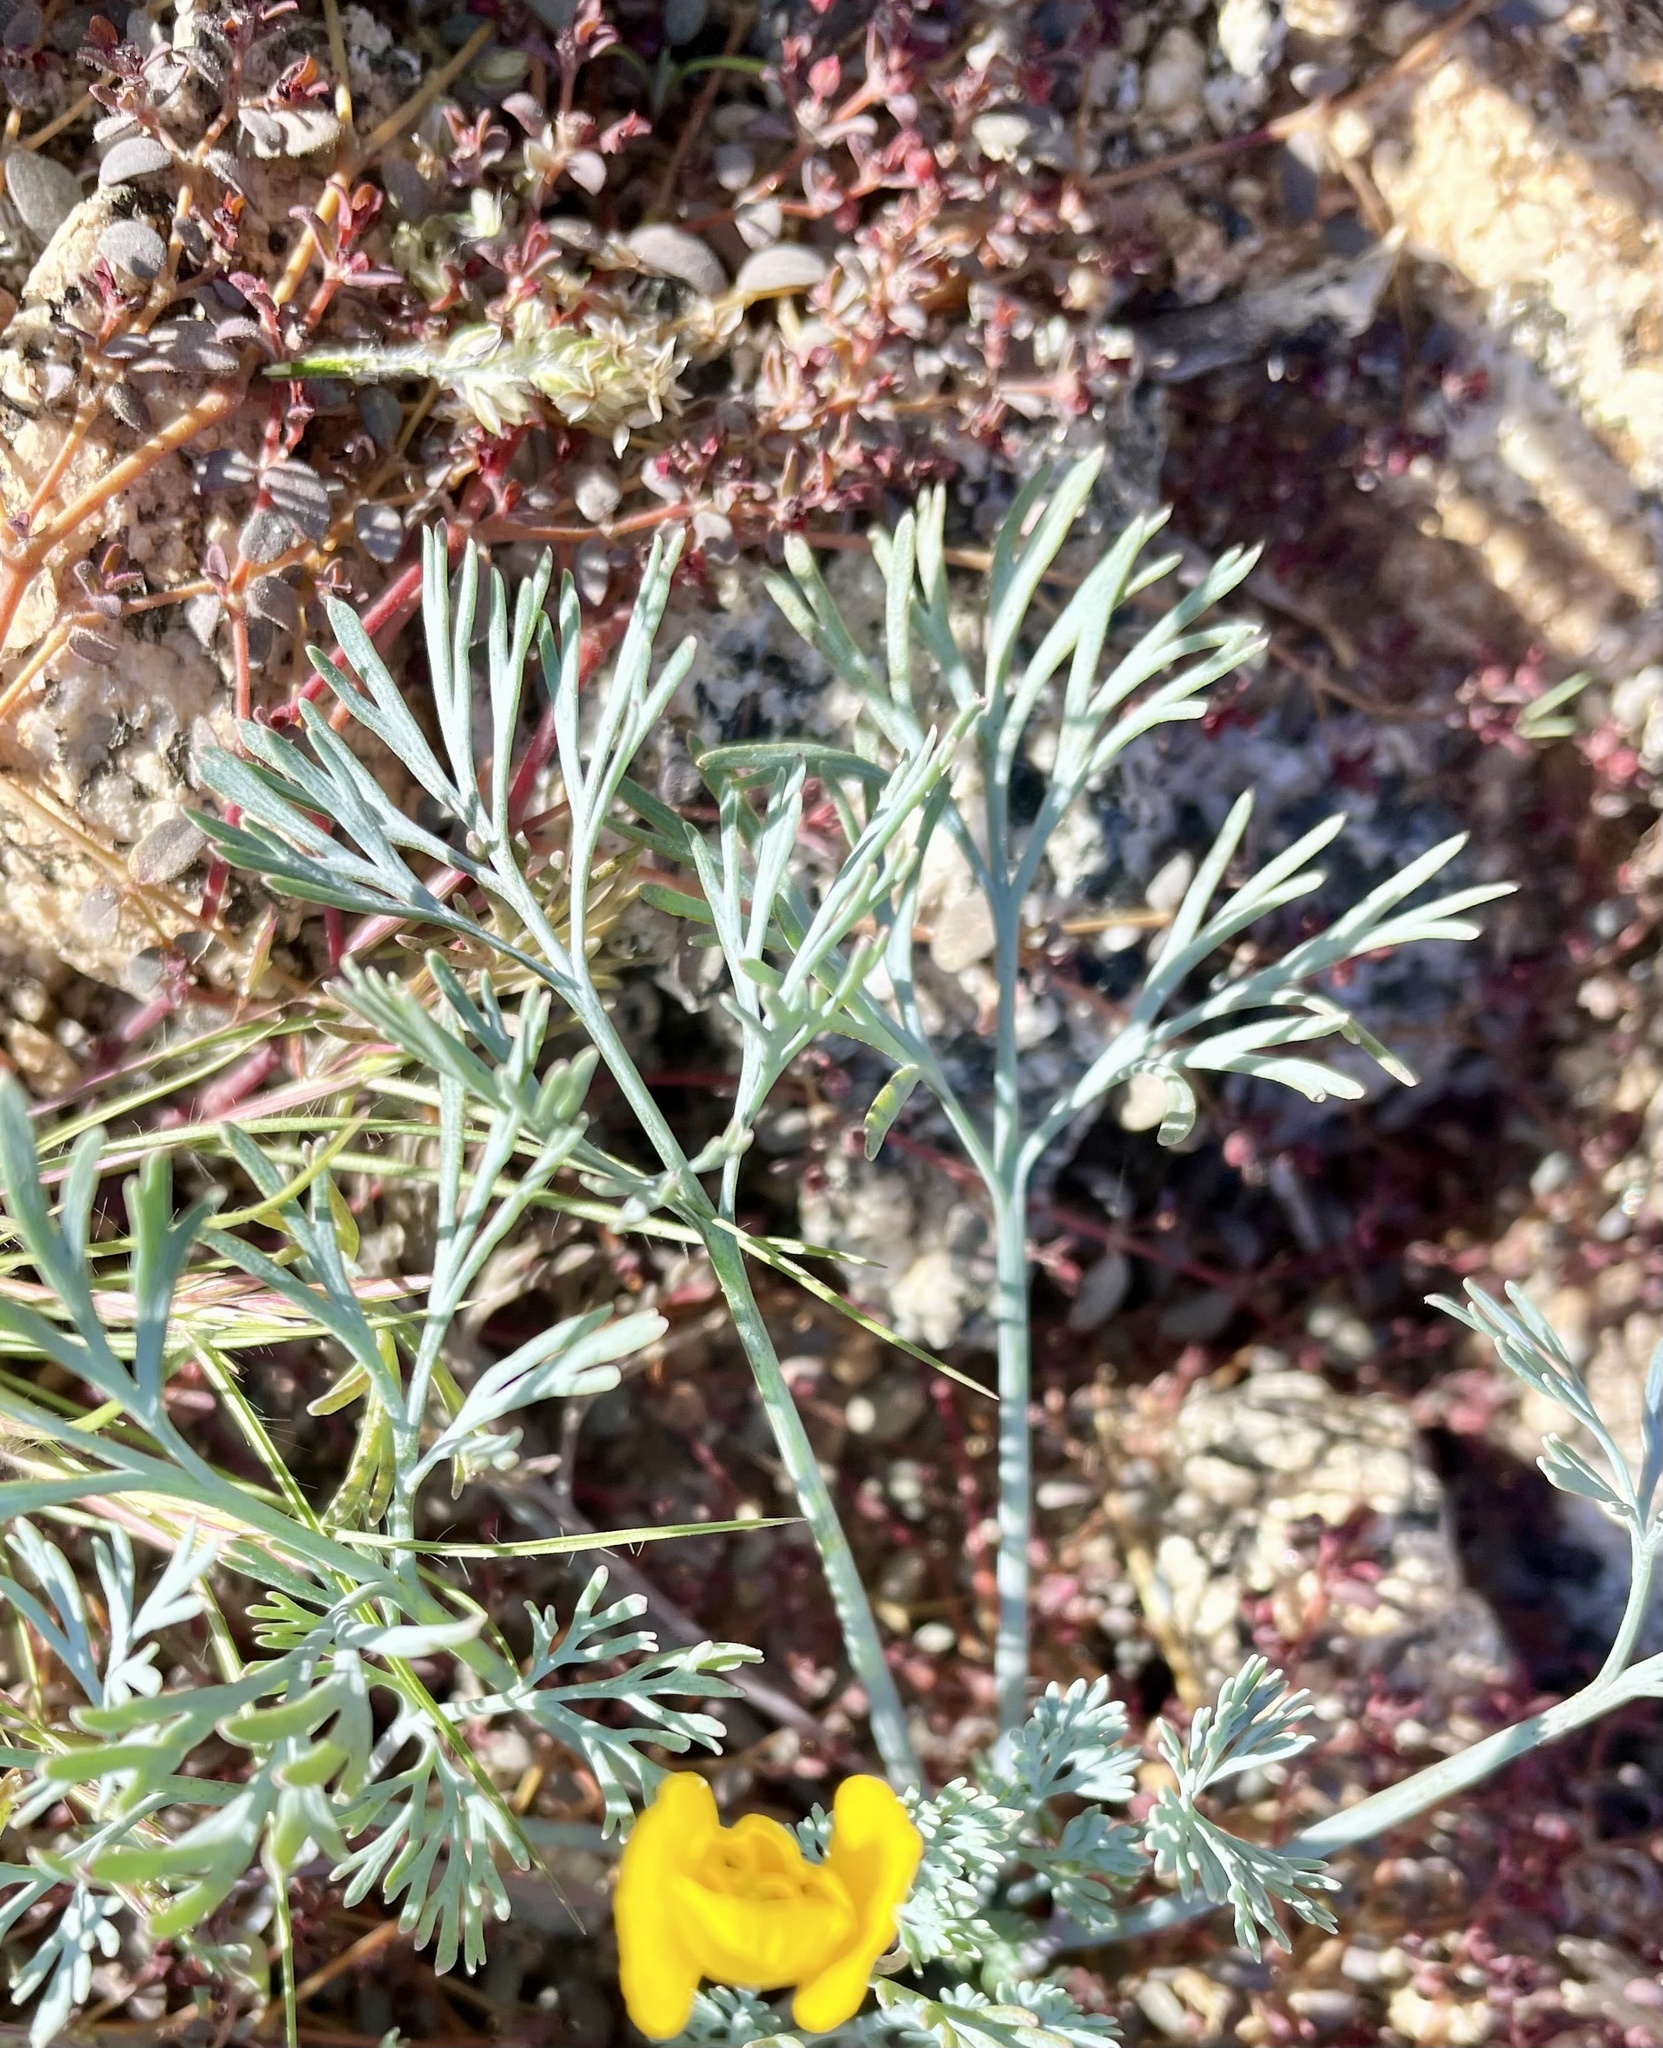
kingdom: Plantae
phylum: Tracheophyta
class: Magnoliopsida
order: Ranunculales
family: Papaveraceae
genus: Eschscholzia
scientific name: Eschscholzia parishii
